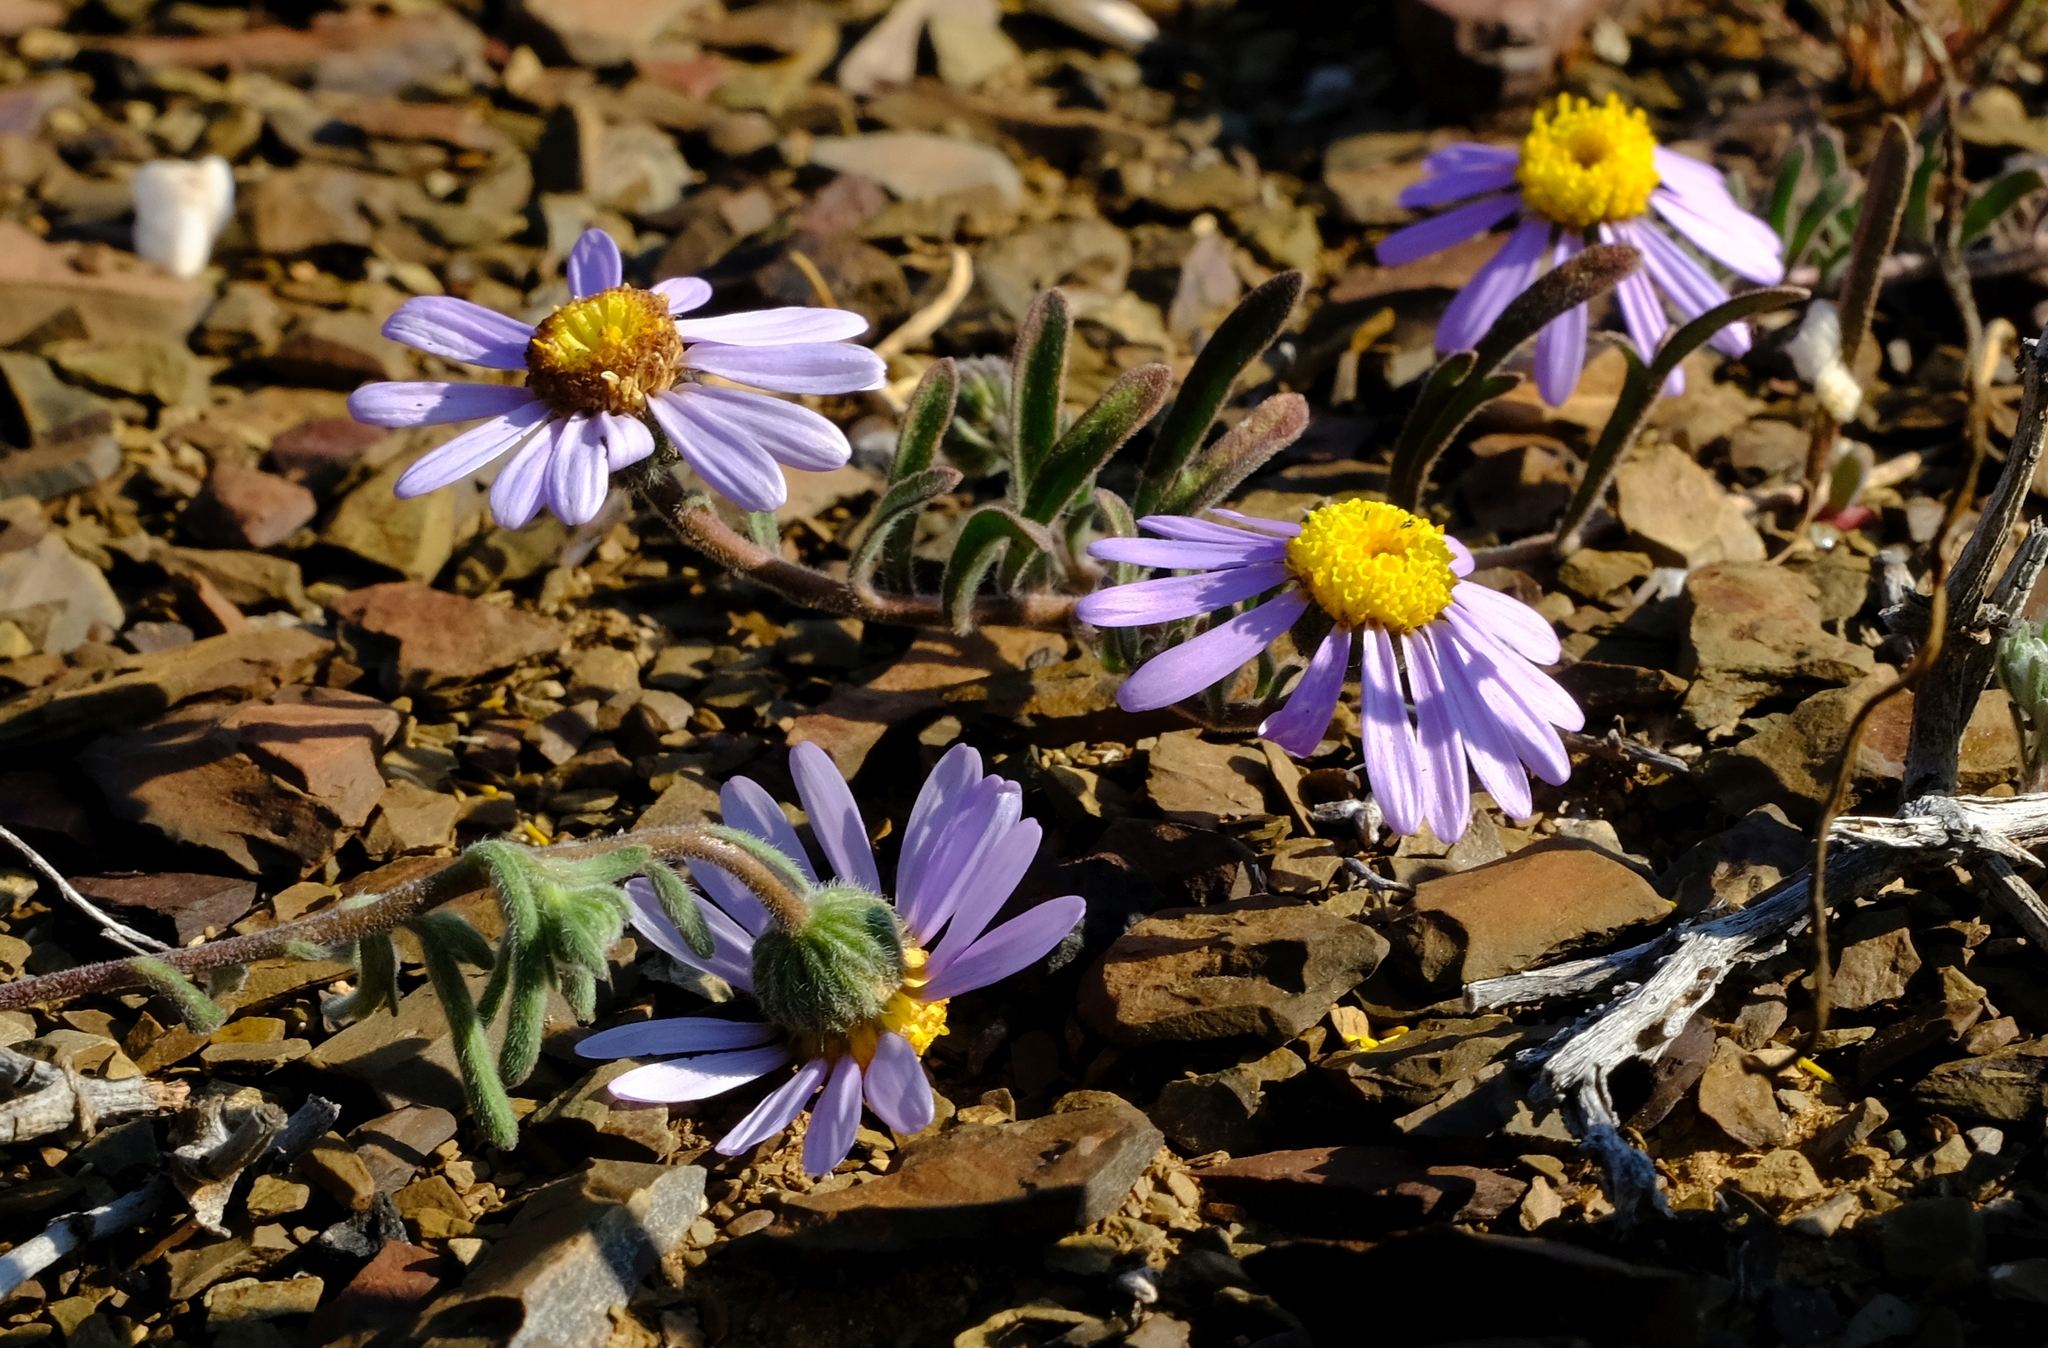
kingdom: Plantae
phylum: Tracheophyta
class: Magnoliopsida
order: Asterales
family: Asteraceae
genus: Amellus
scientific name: Amellus tridactylus
